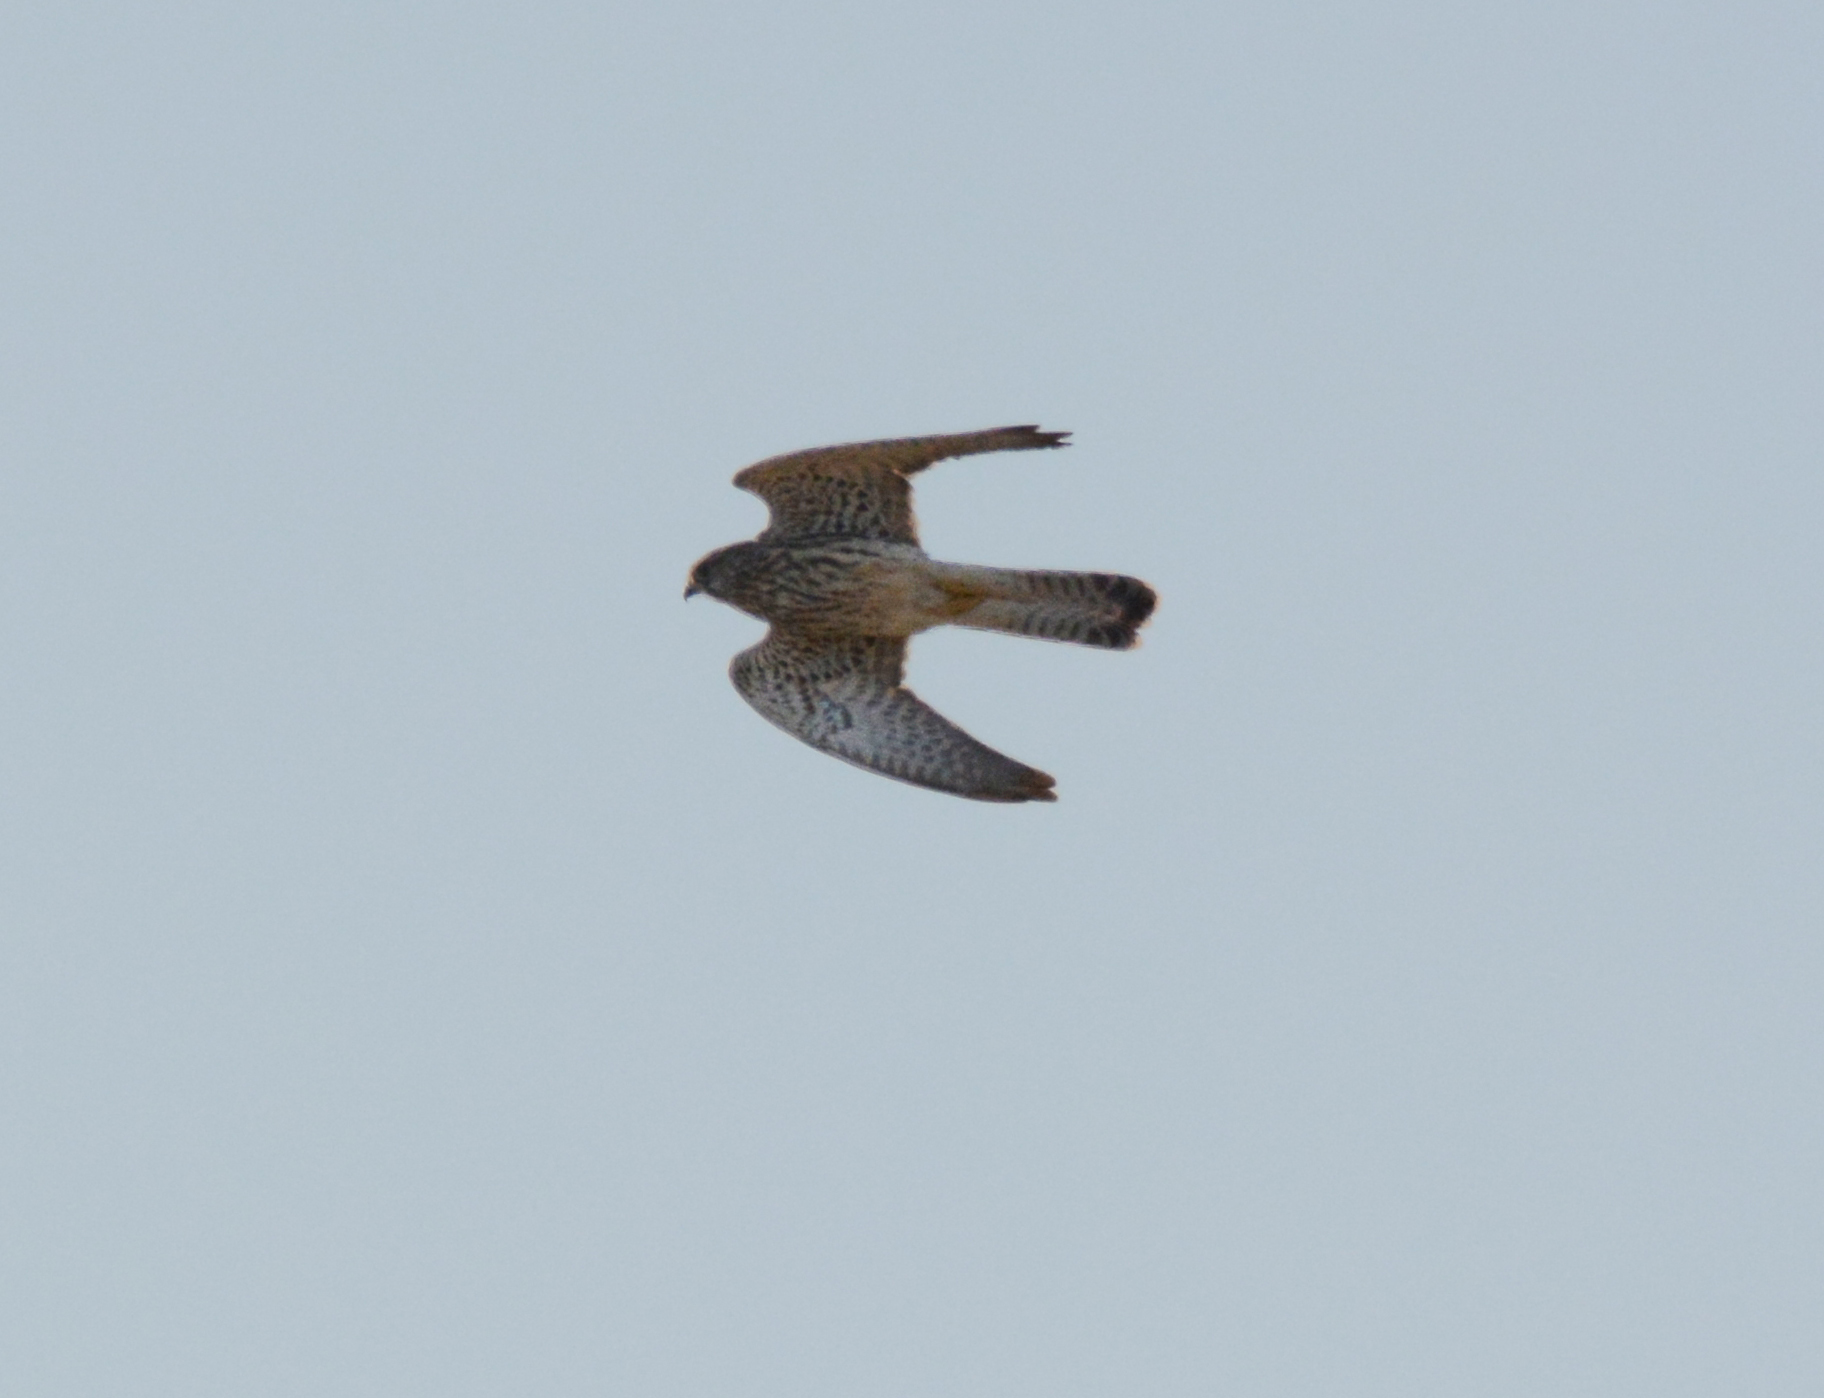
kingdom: Animalia
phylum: Chordata
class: Aves
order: Falconiformes
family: Falconidae
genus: Falco
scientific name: Falco tinnunculus
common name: Common kestrel
